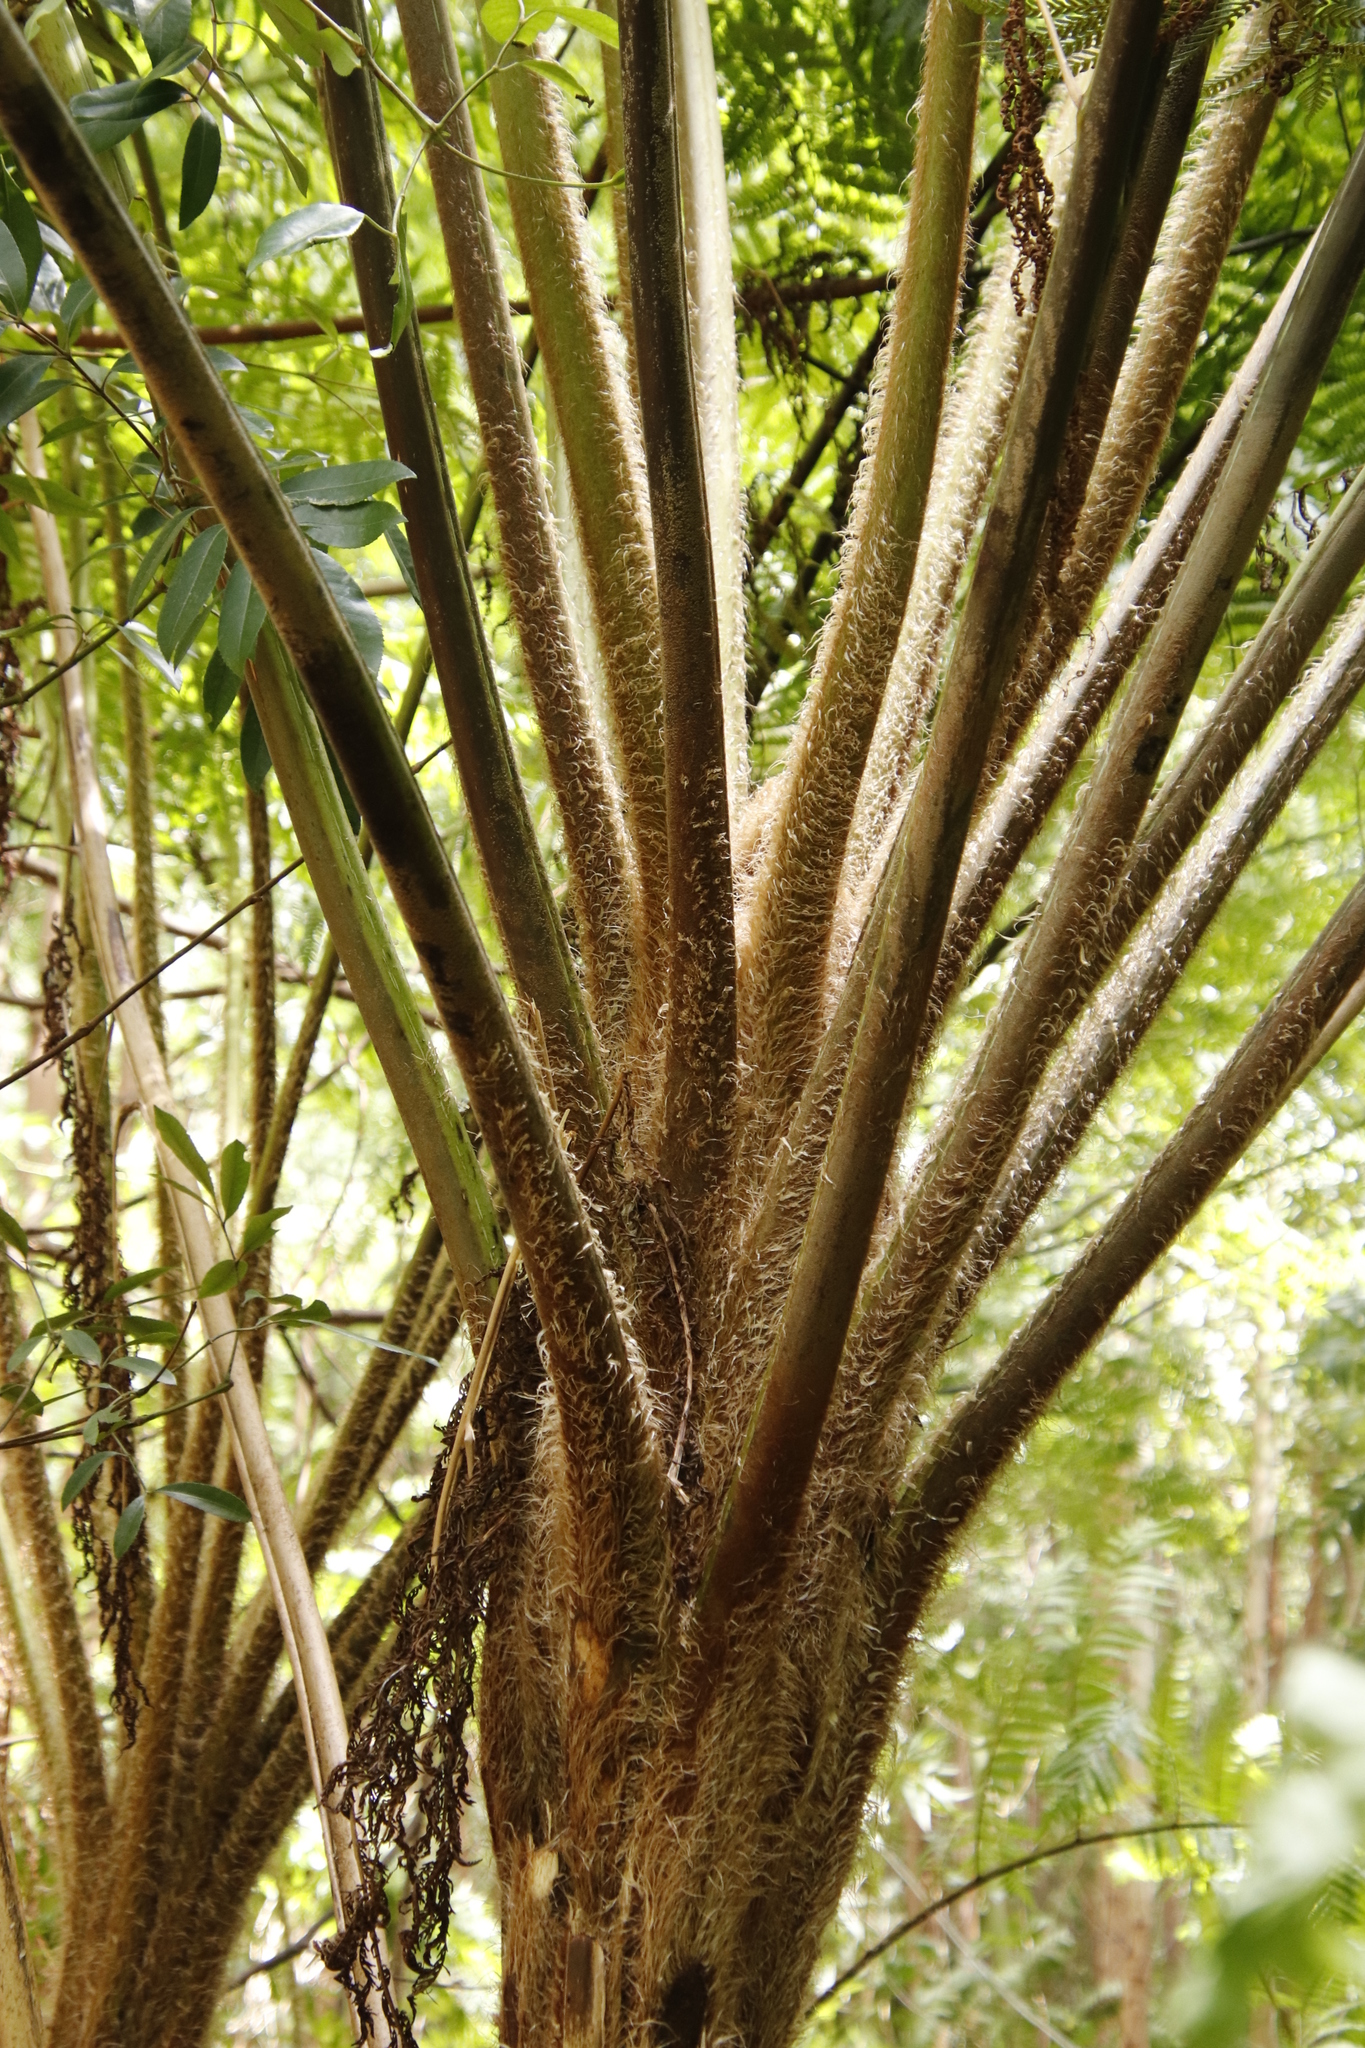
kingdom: Plantae
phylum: Tracheophyta
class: Polypodiopsida
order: Cyatheales
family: Cyatheaceae
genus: Sphaeropteris
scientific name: Sphaeropteris cooperi
